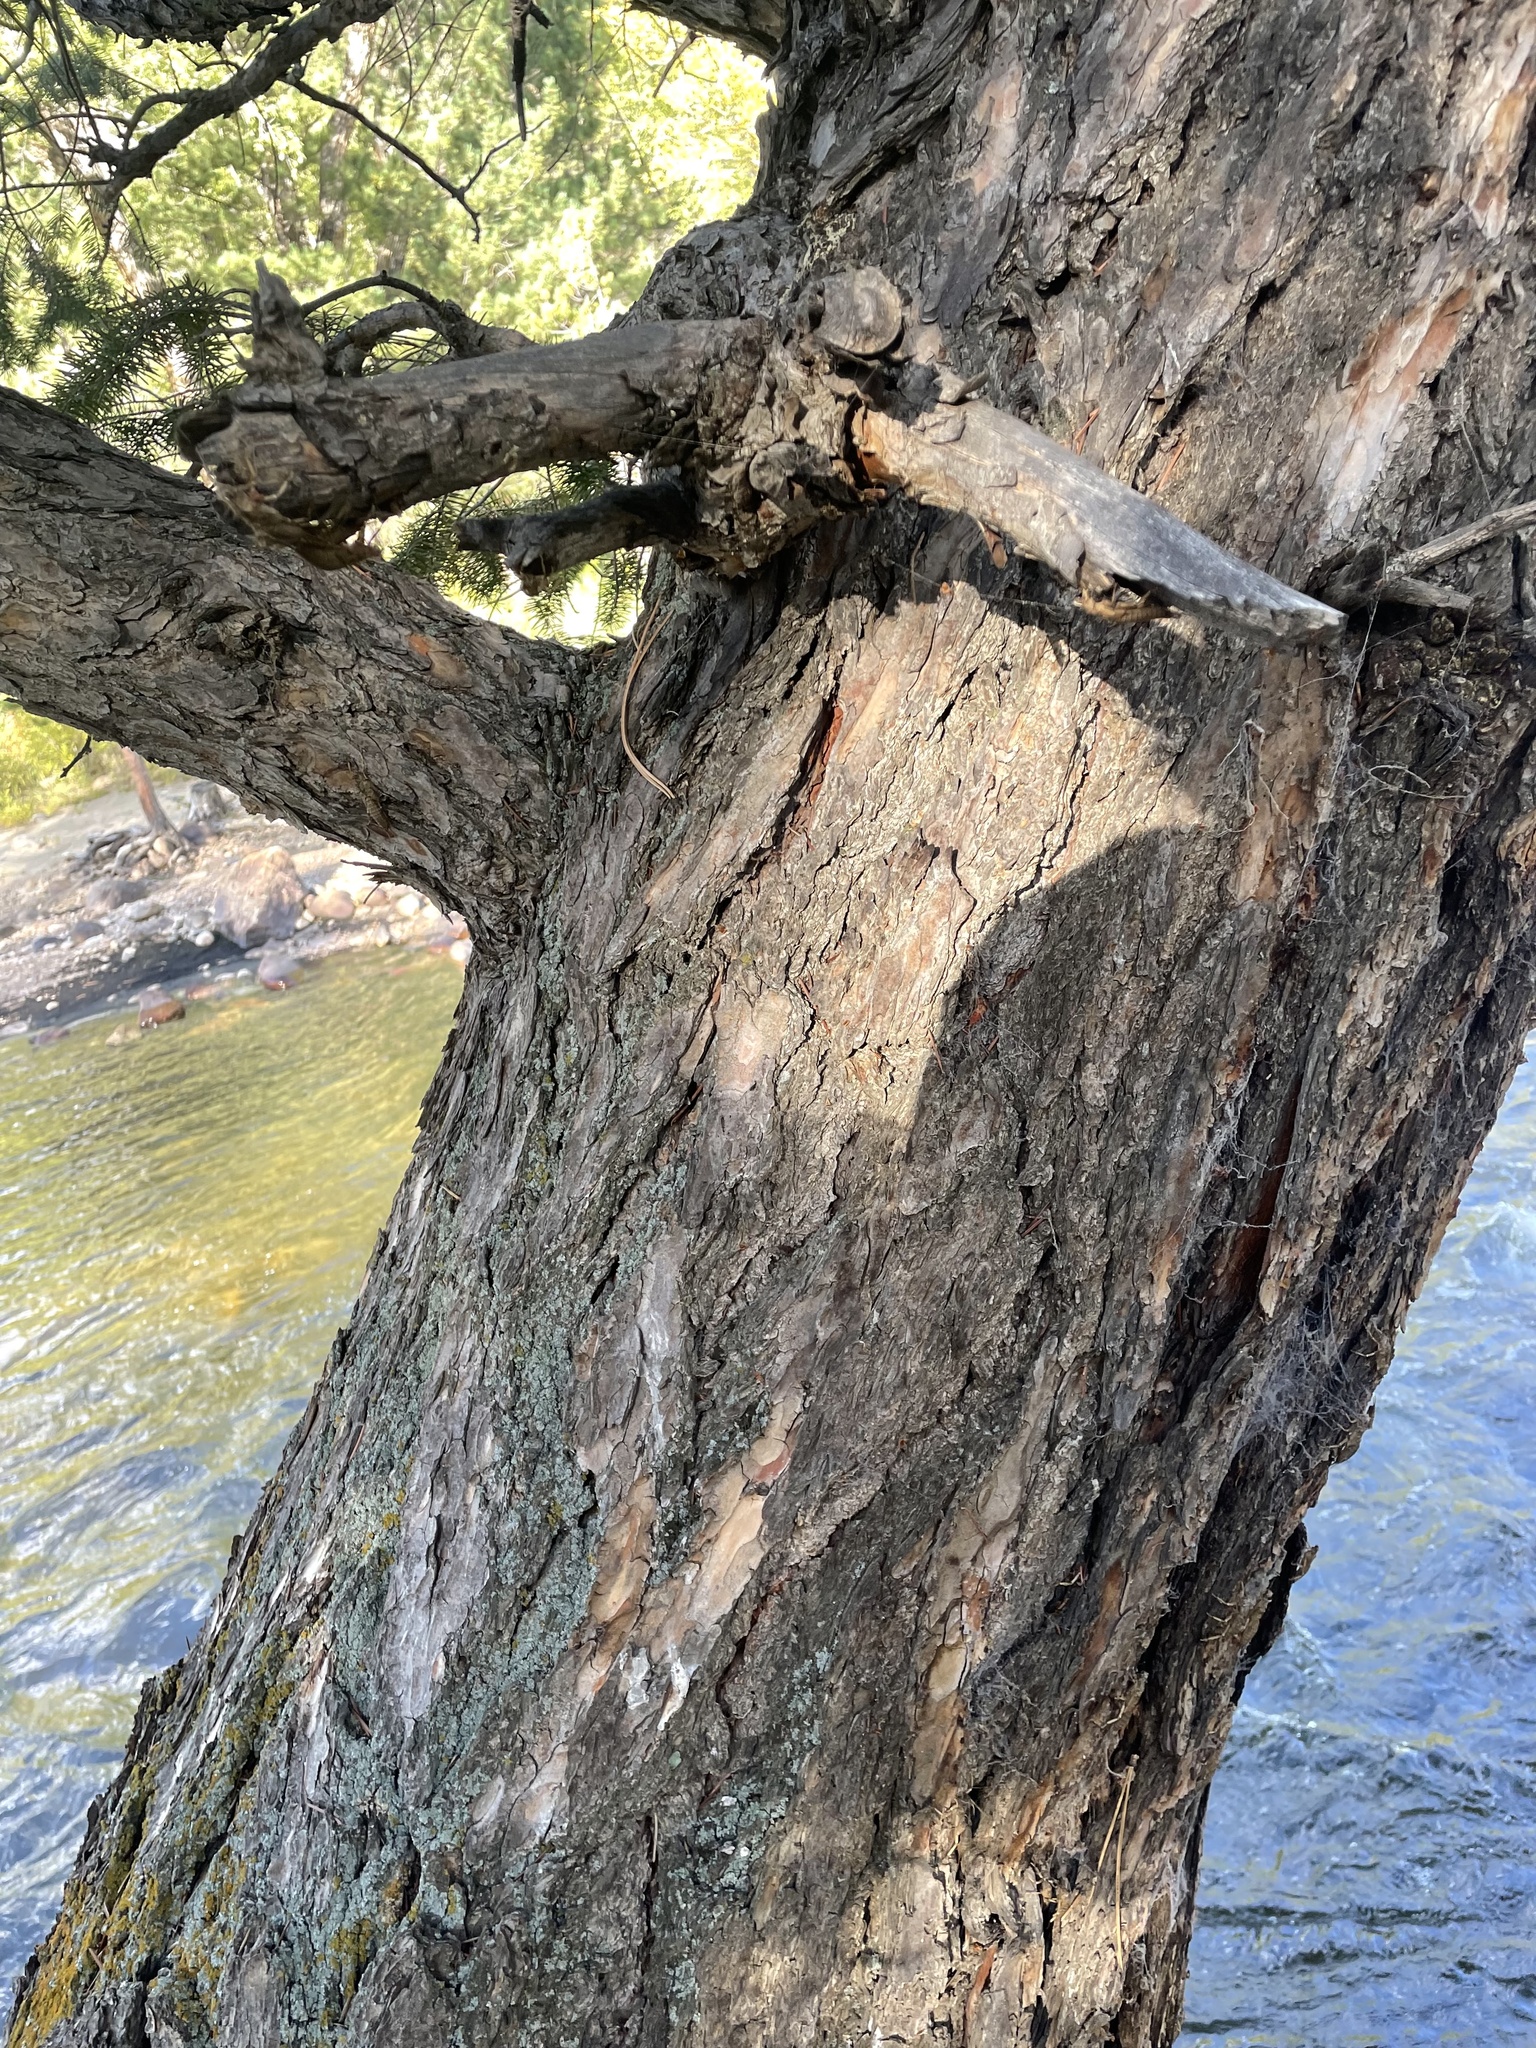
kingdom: Plantae
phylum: Tracheophyta
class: Pinopsida
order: Pinales
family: Pinaceae
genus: Pseudotsuga
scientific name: Pseudotsuga menziesii
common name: Douglas fir
